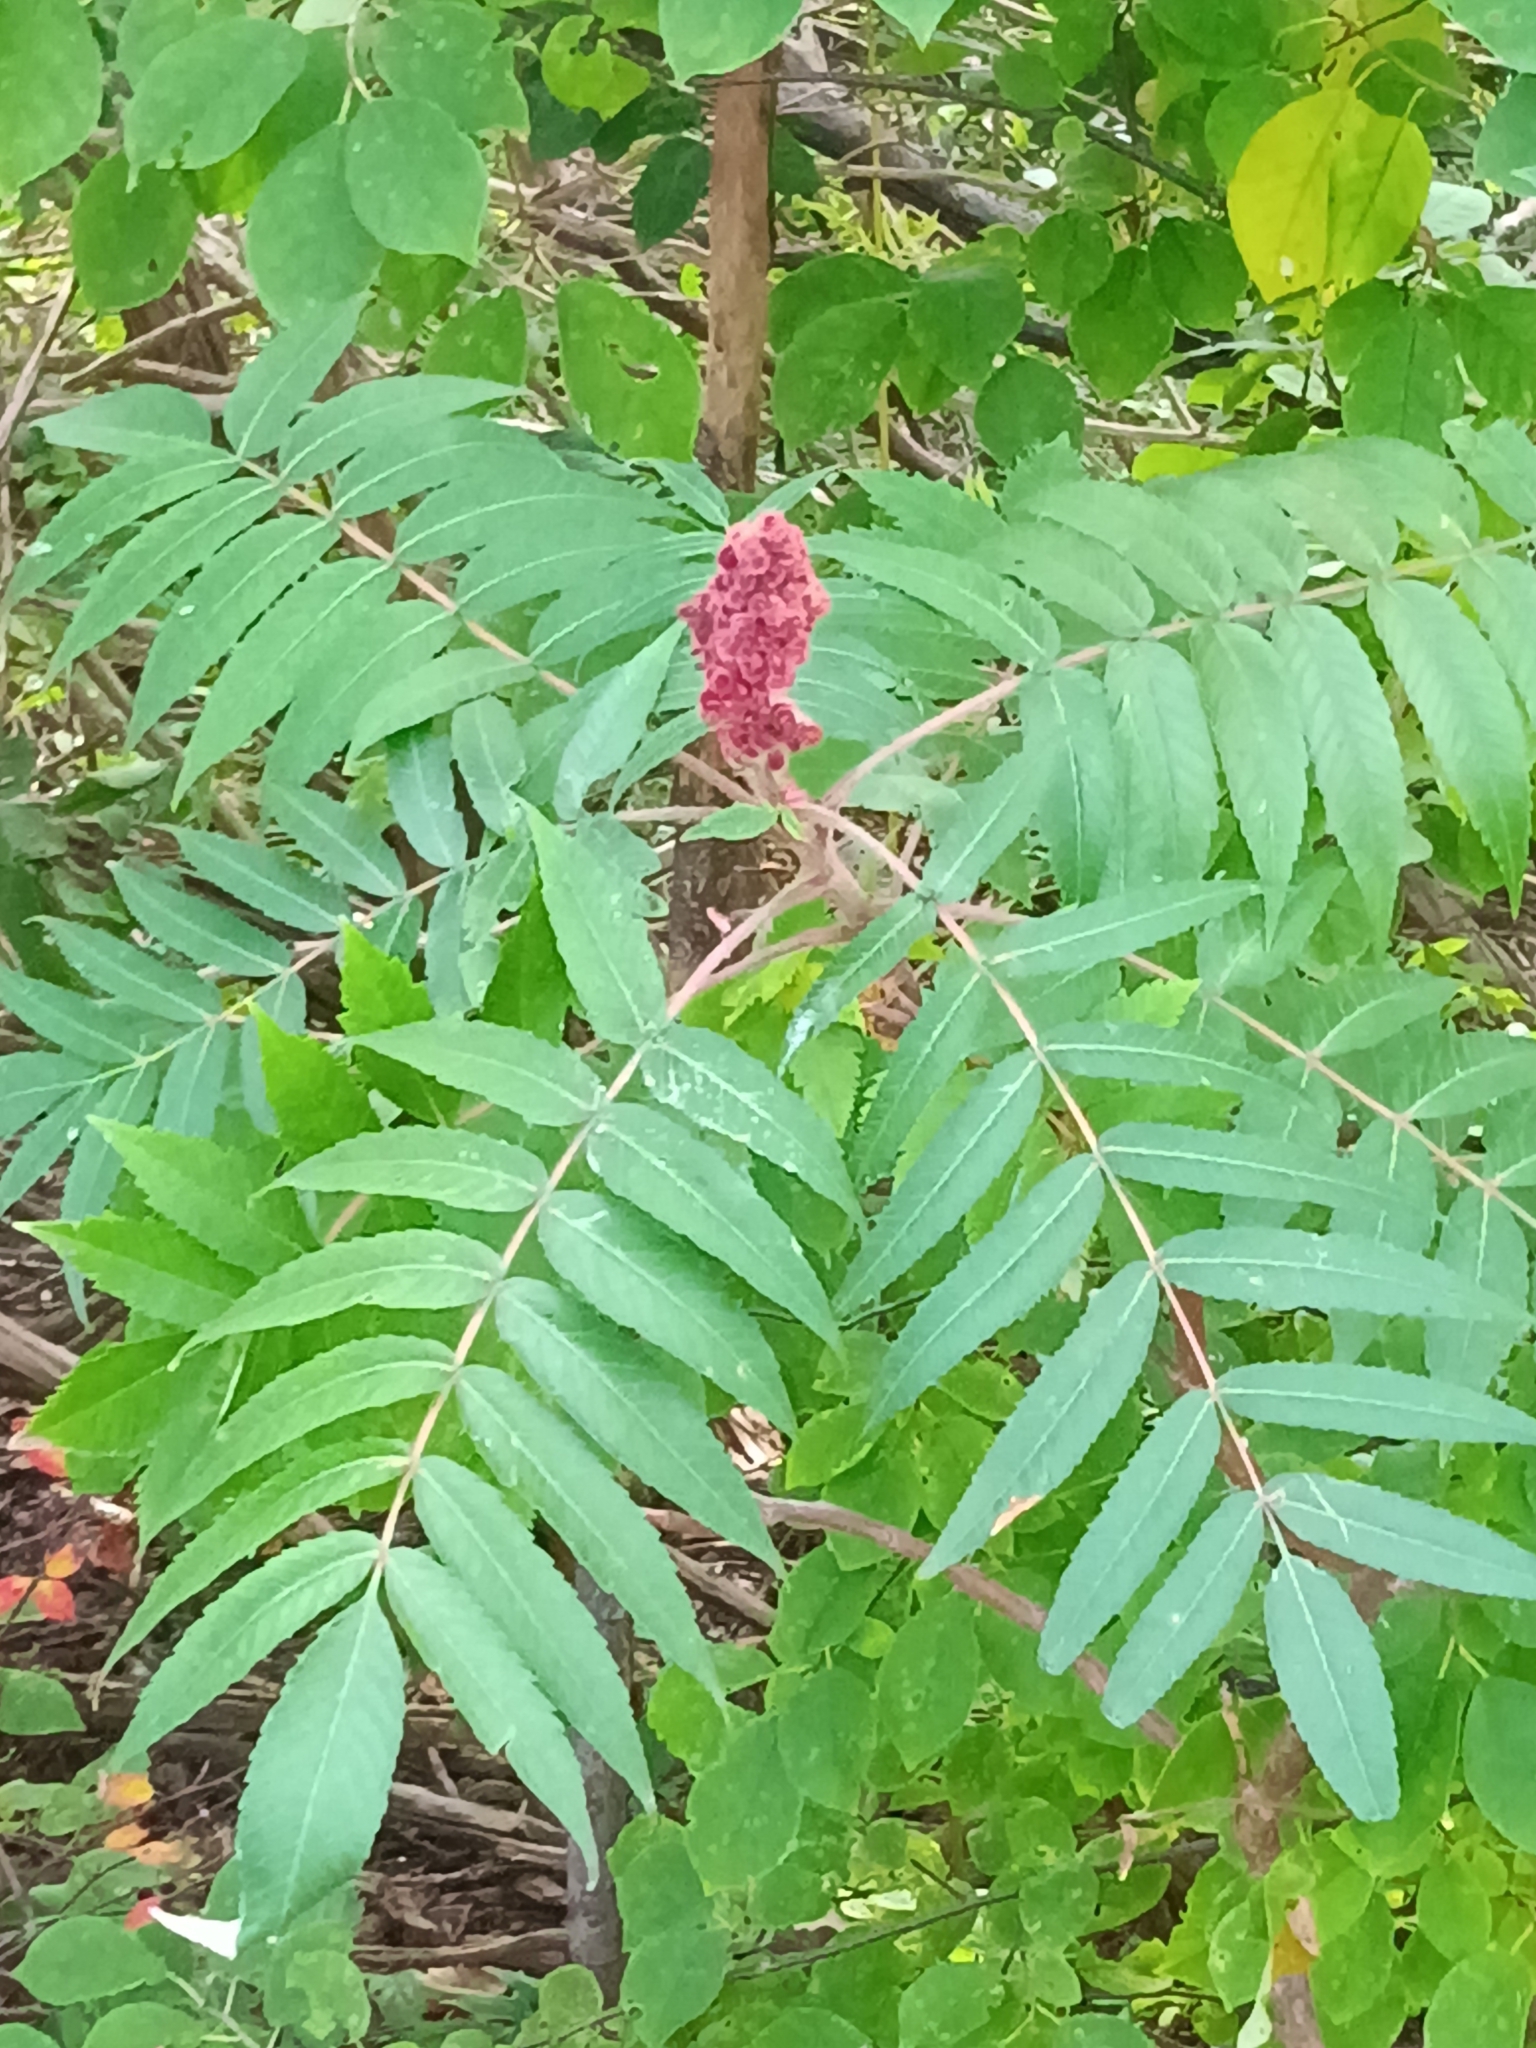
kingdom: Plantae
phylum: Tracheophyta
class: Magnoliopsida
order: Sapindales
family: Anacardiaceae
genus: Rhus
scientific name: Rhus typhina
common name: Staghorn sumac
